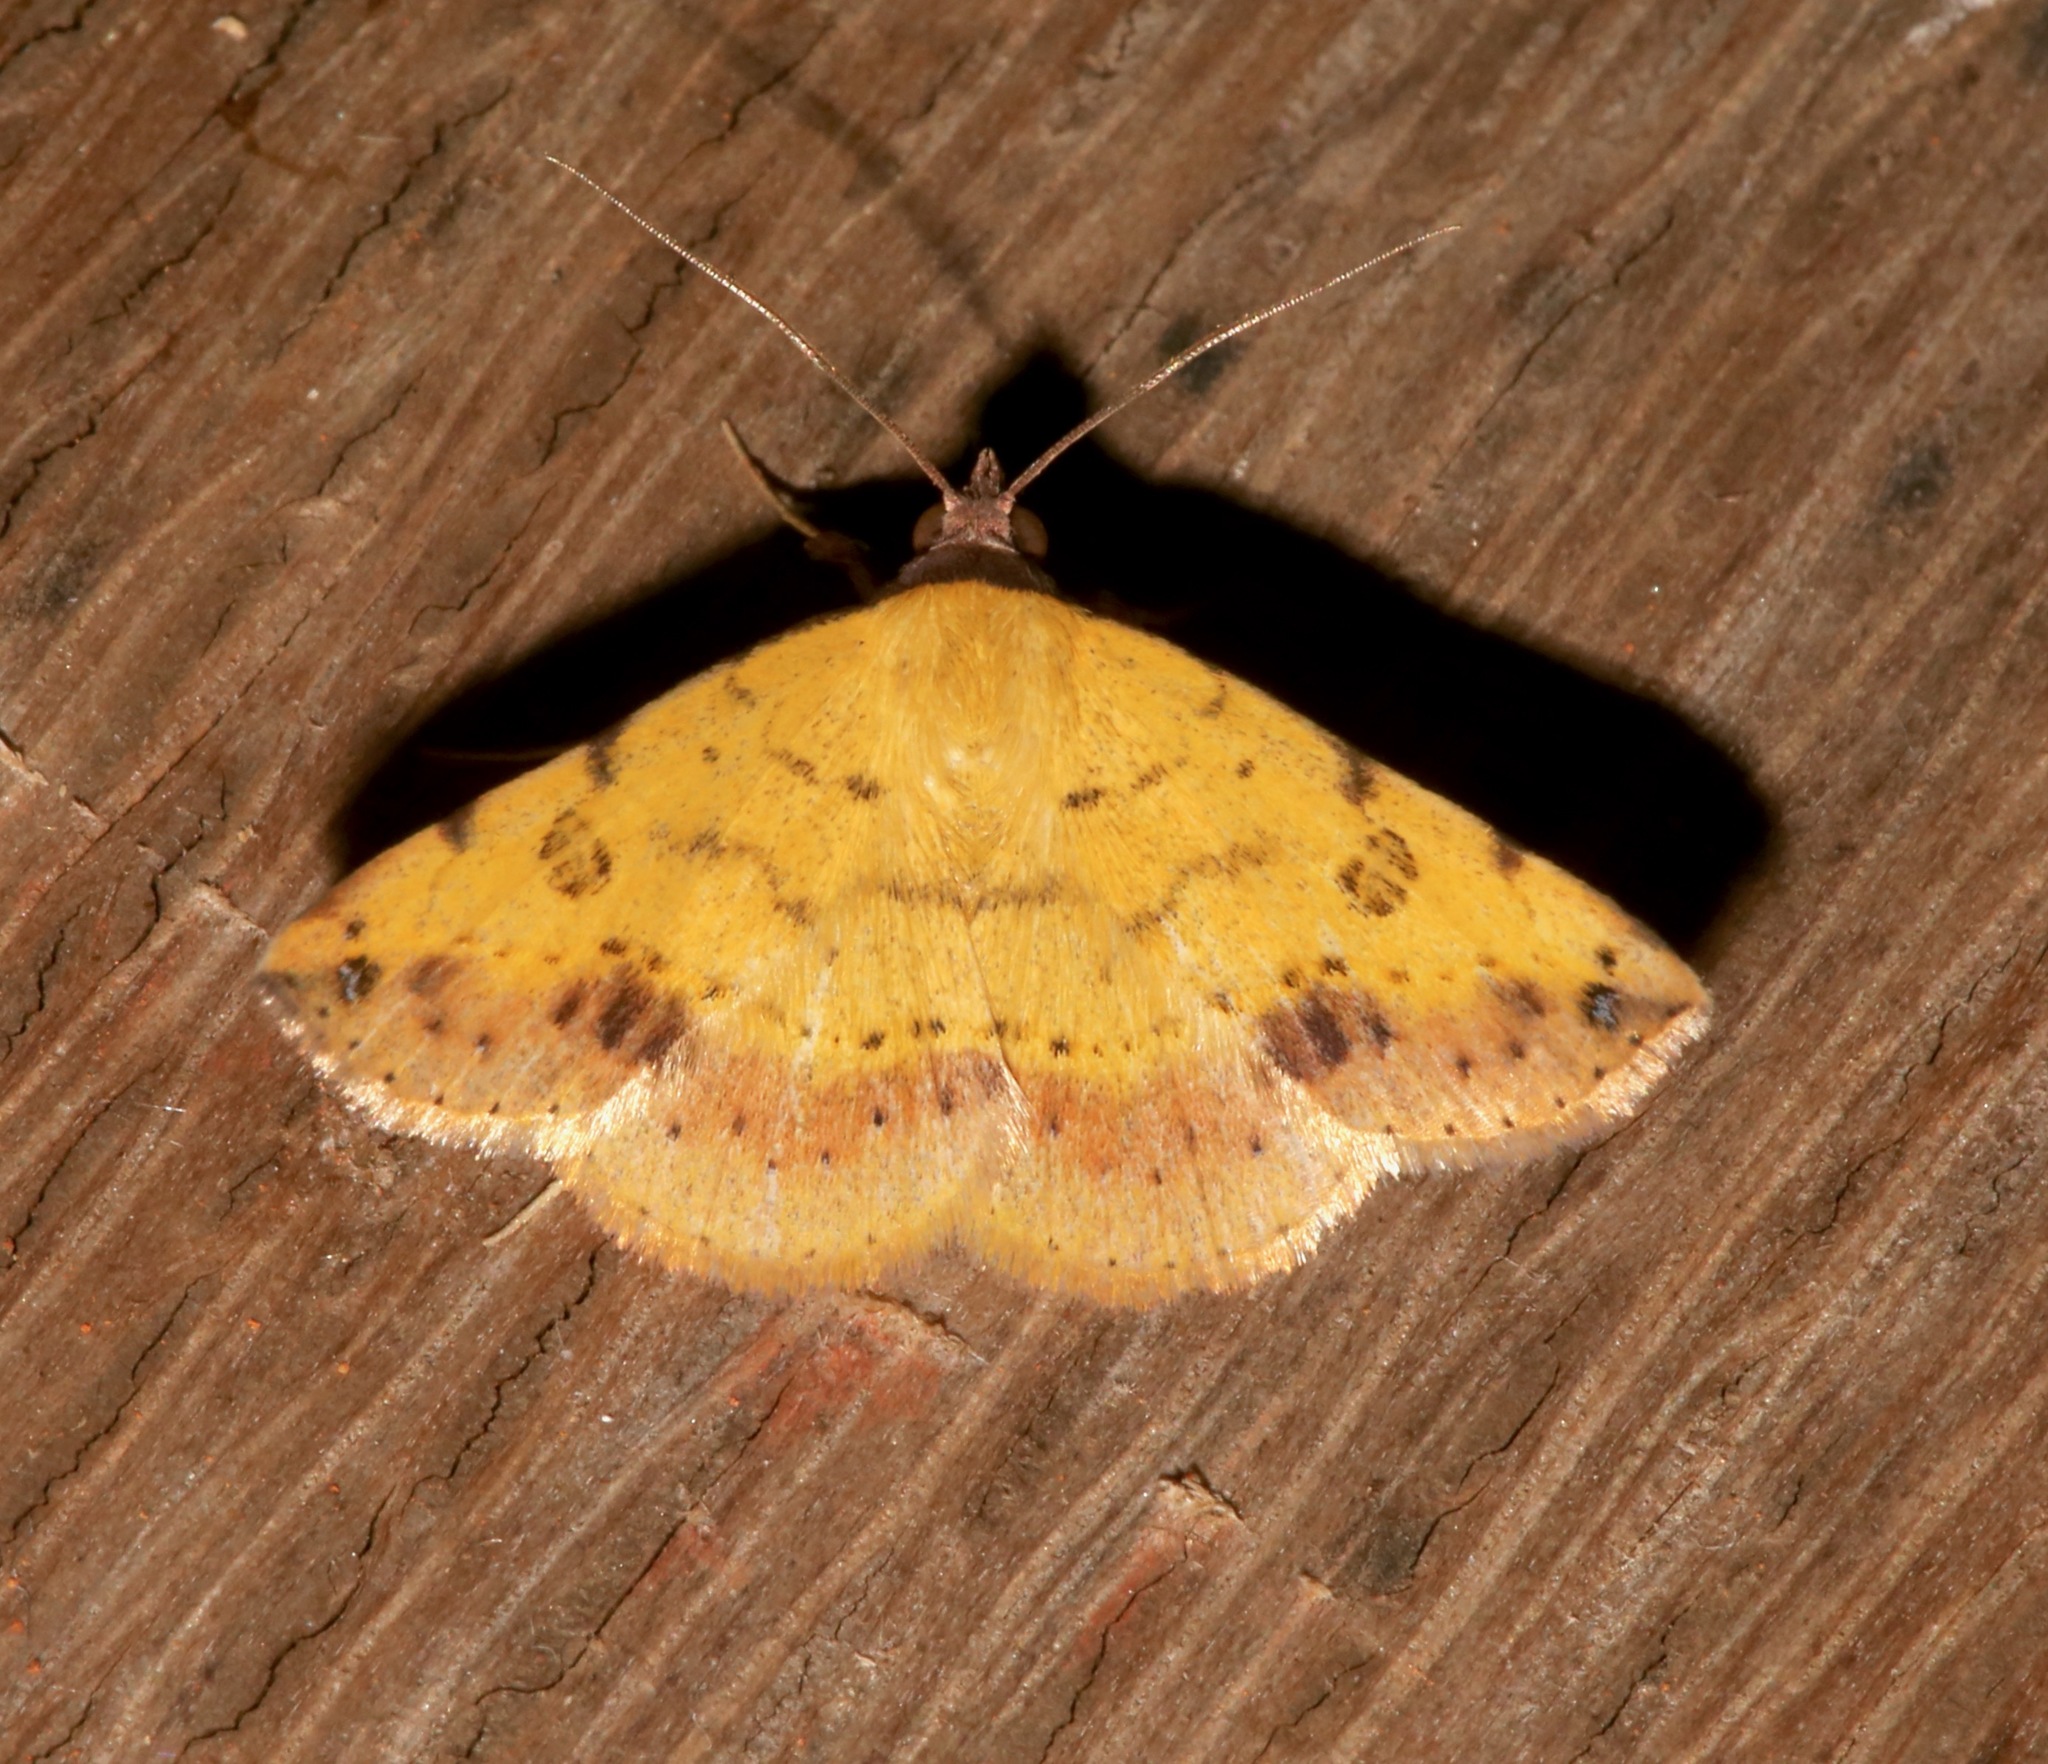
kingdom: Animalia
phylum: Arthropoda
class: Insecta
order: Lepidoptera
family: Erebidae
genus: Hemeroplanis
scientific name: Hemeroplanis scopulepes
